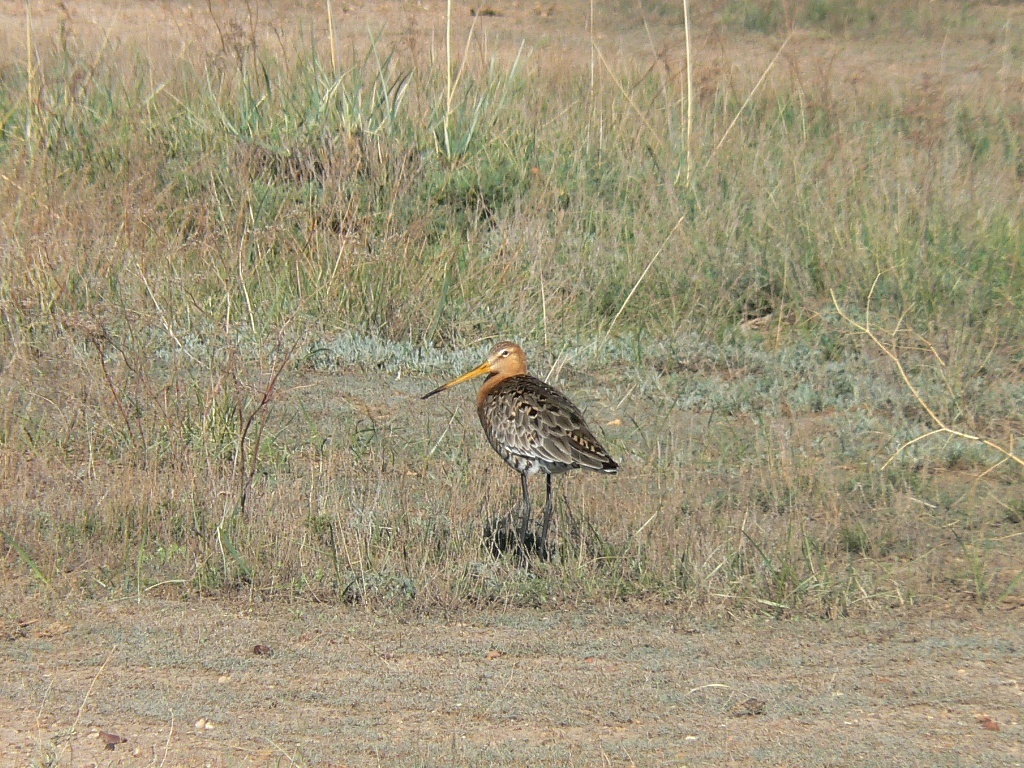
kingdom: Animalia
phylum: Chordata
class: Aves
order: Charadriiformes
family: Scolopacidae
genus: Limosa
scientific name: Limosa limosa
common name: Black-tailed godwit
